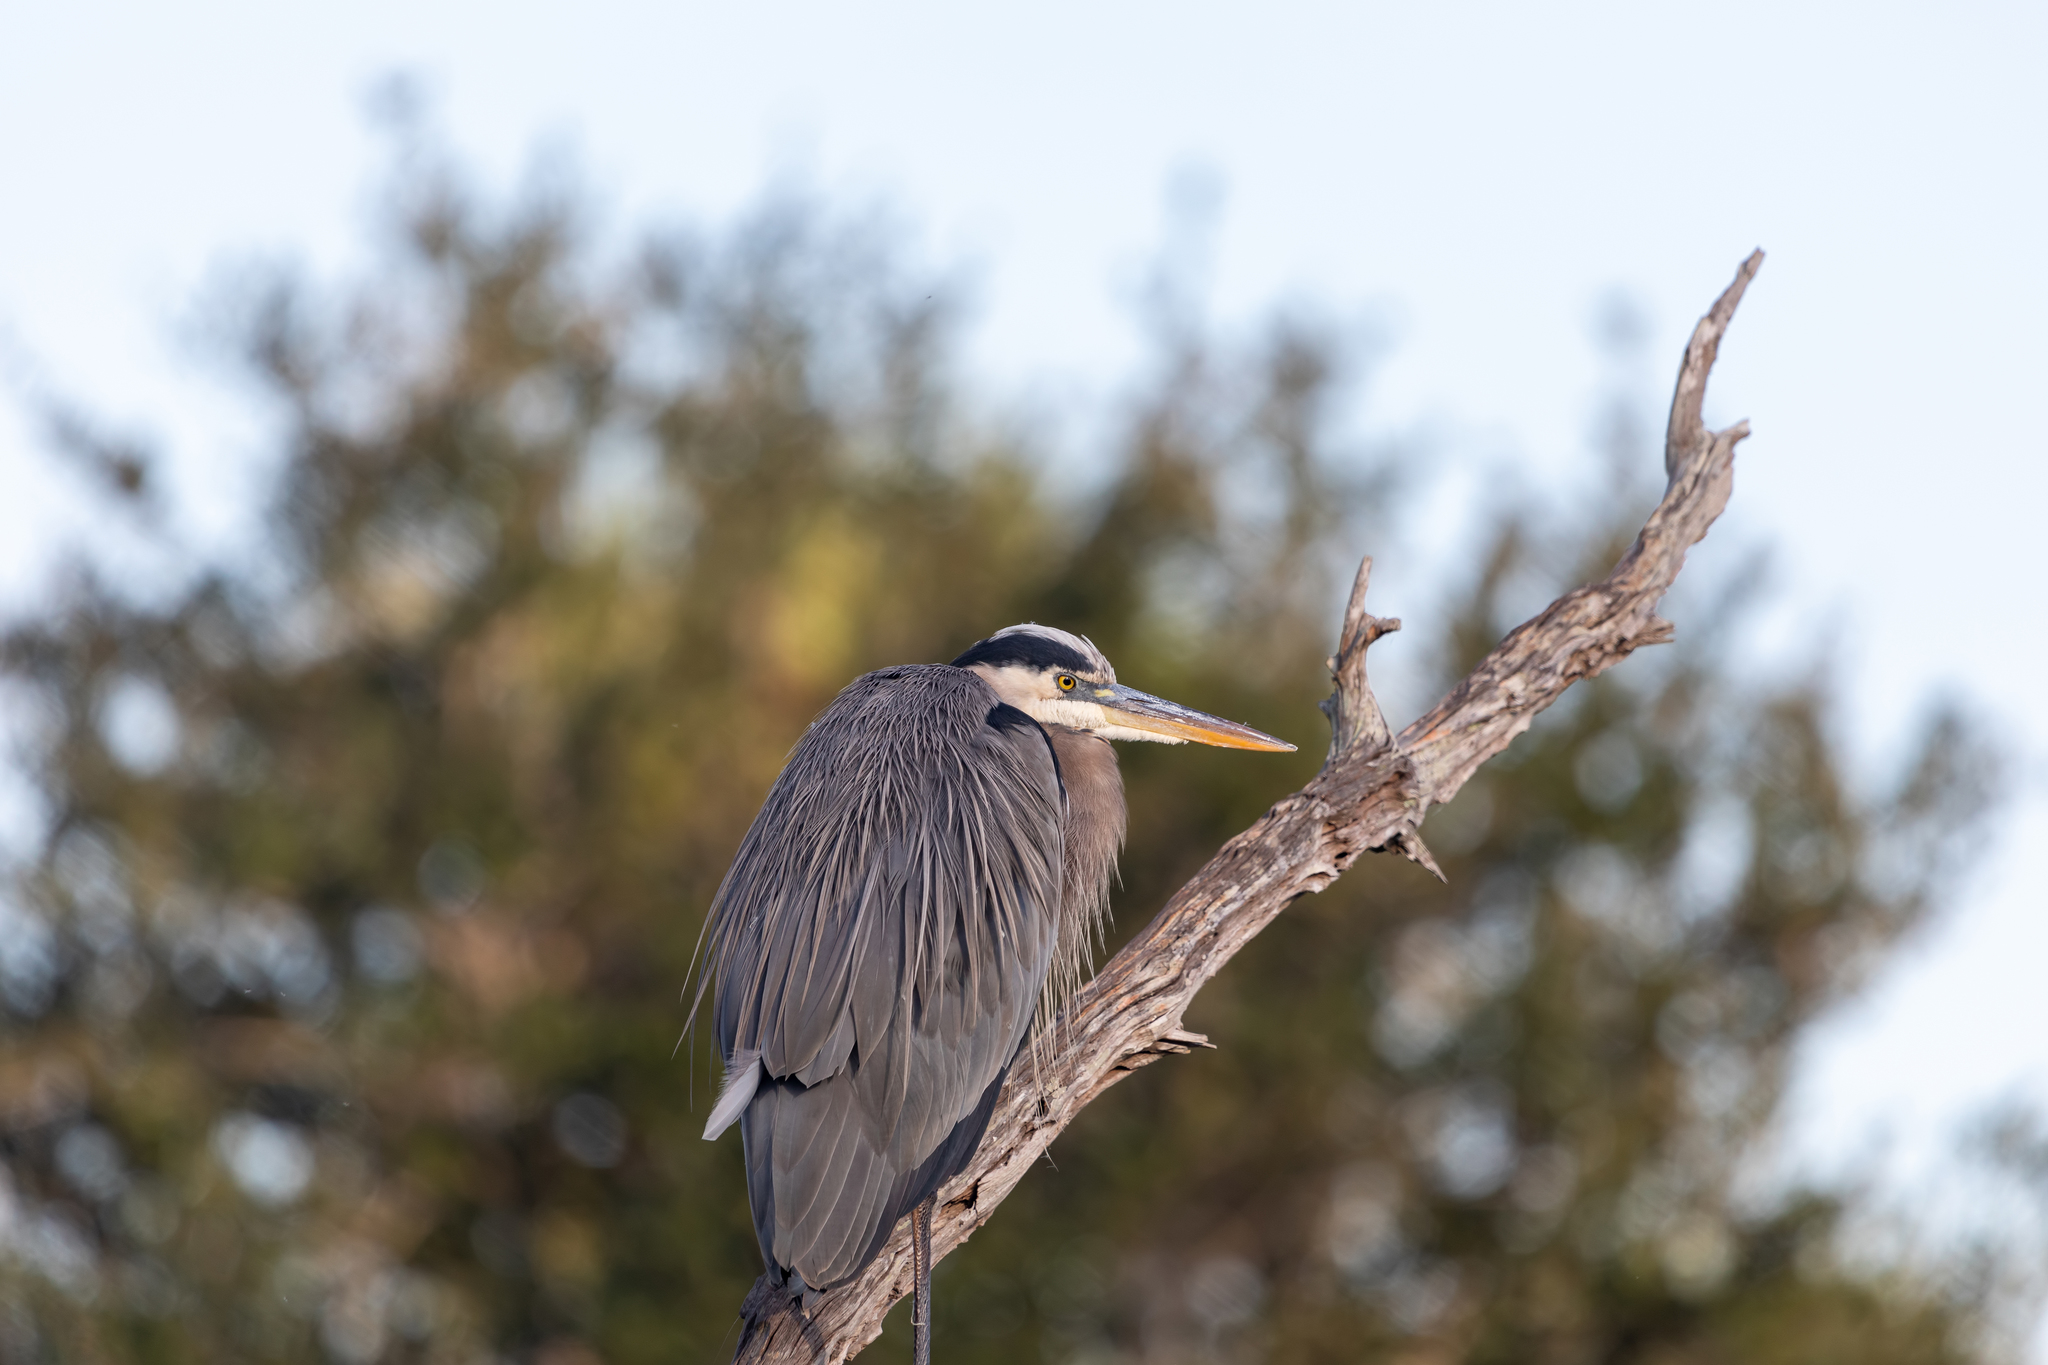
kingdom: Animalia
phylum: Chordata
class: Aves
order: Pelecaniformes
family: Ardeidae
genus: Ardea
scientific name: Ardea herodias
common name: Great blue heron
